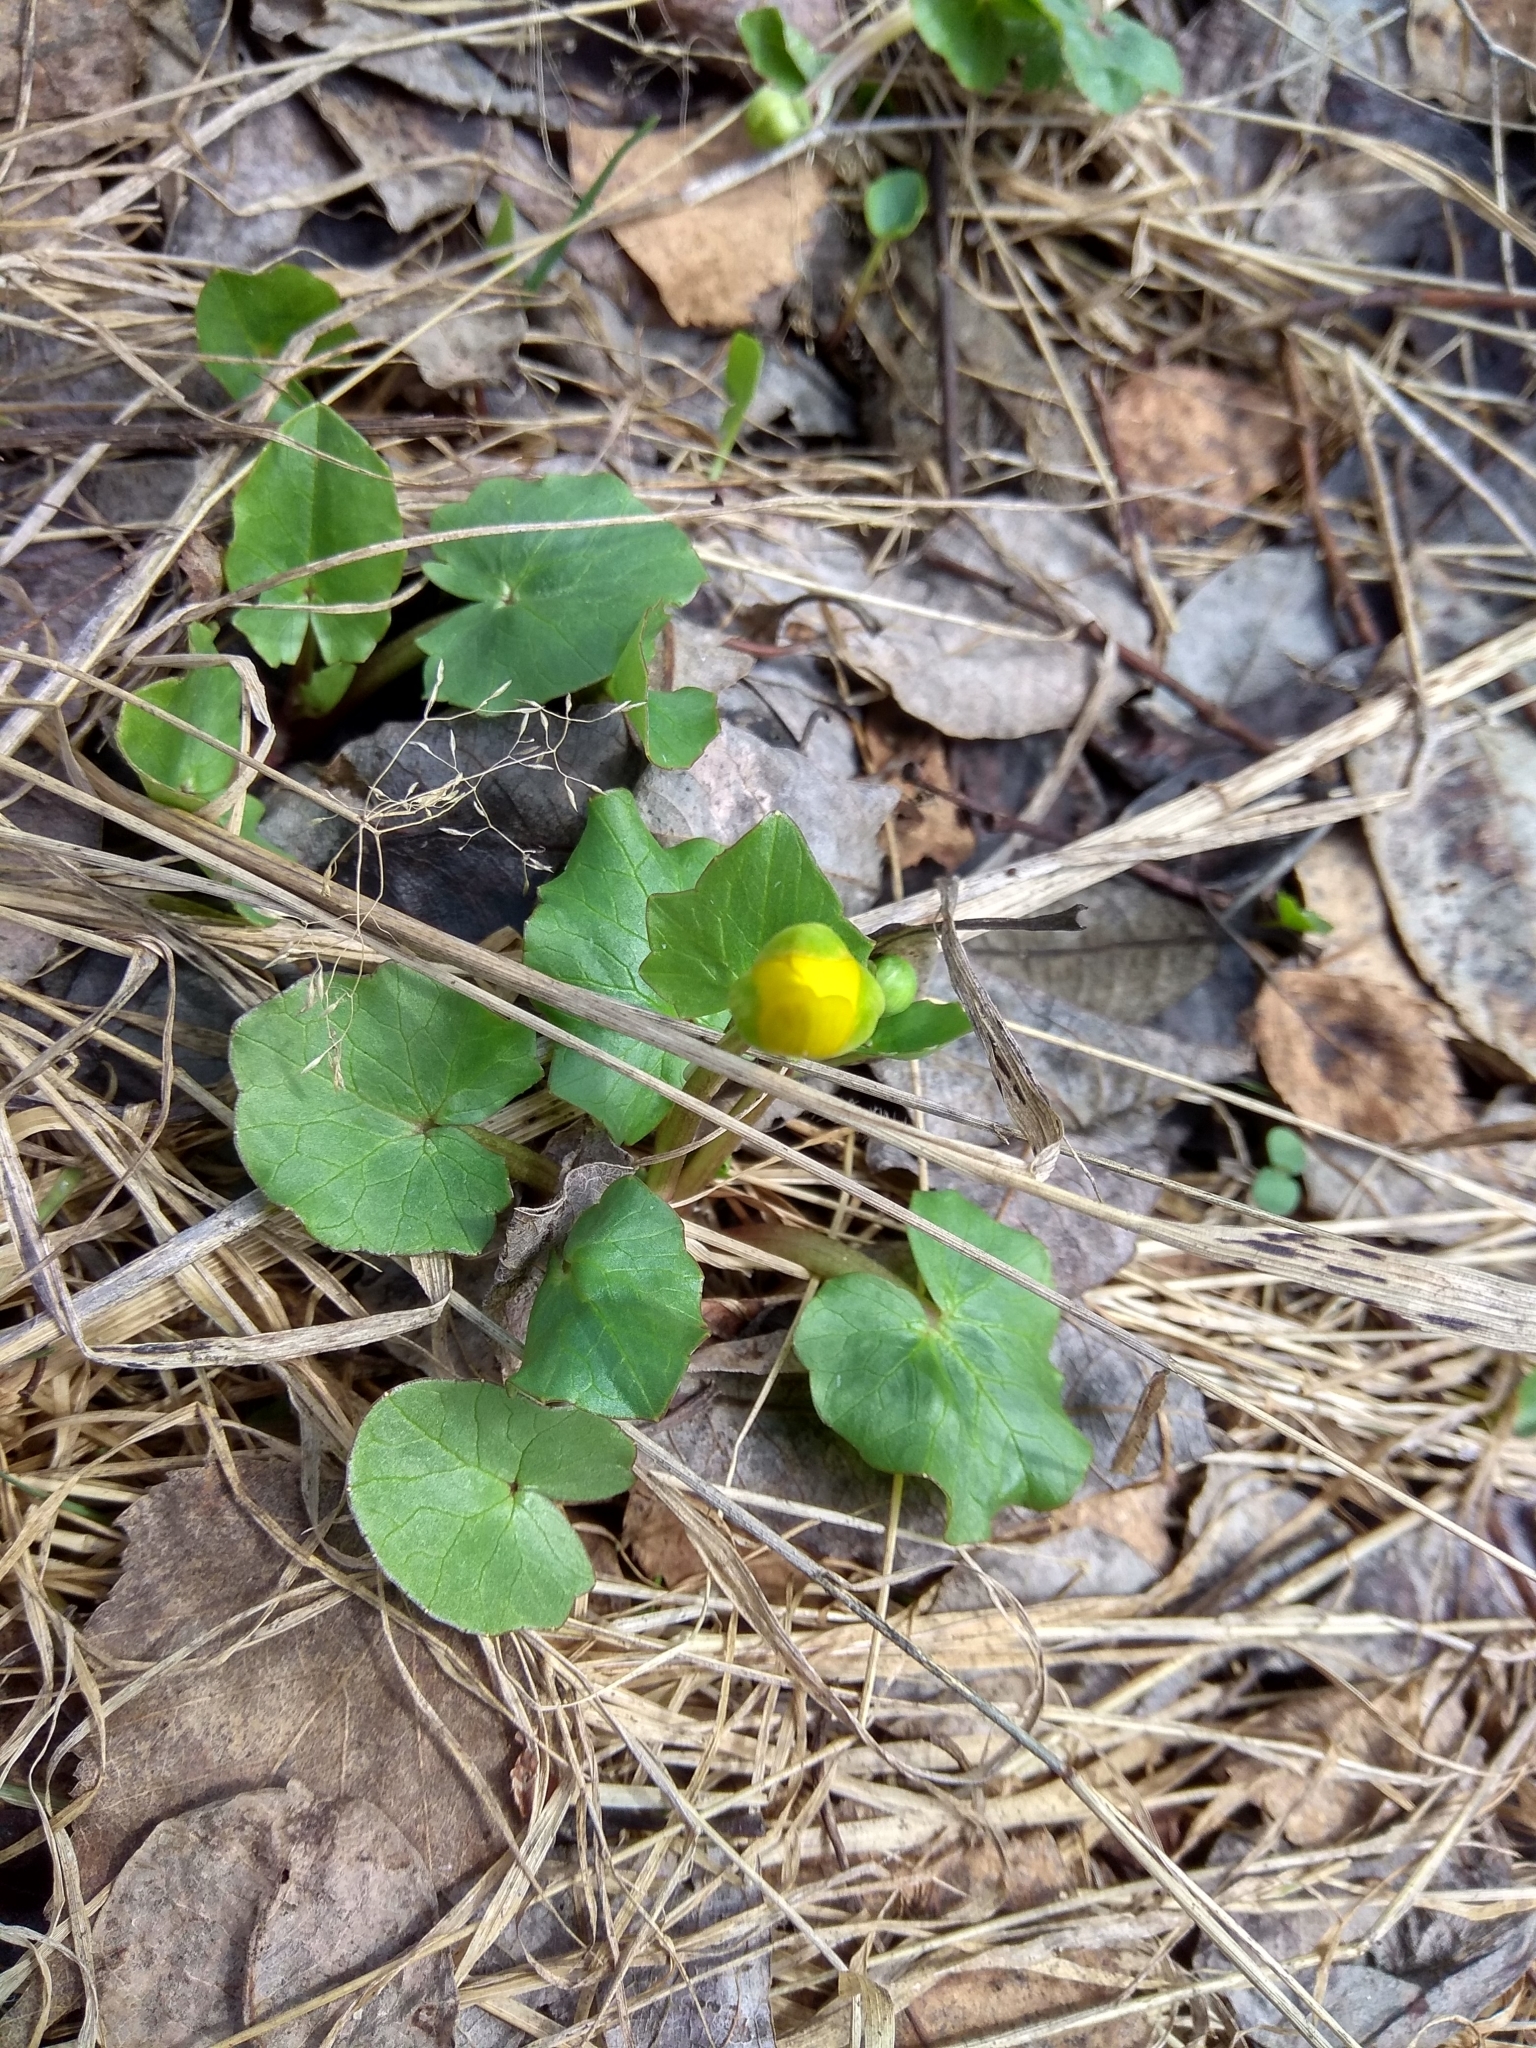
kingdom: Plantae
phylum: Tracheophyta
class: Magnoliopsida
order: Ranunculales
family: Ranunculaceae
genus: Ficaria
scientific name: Ficaria verna
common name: Lesser celandine
